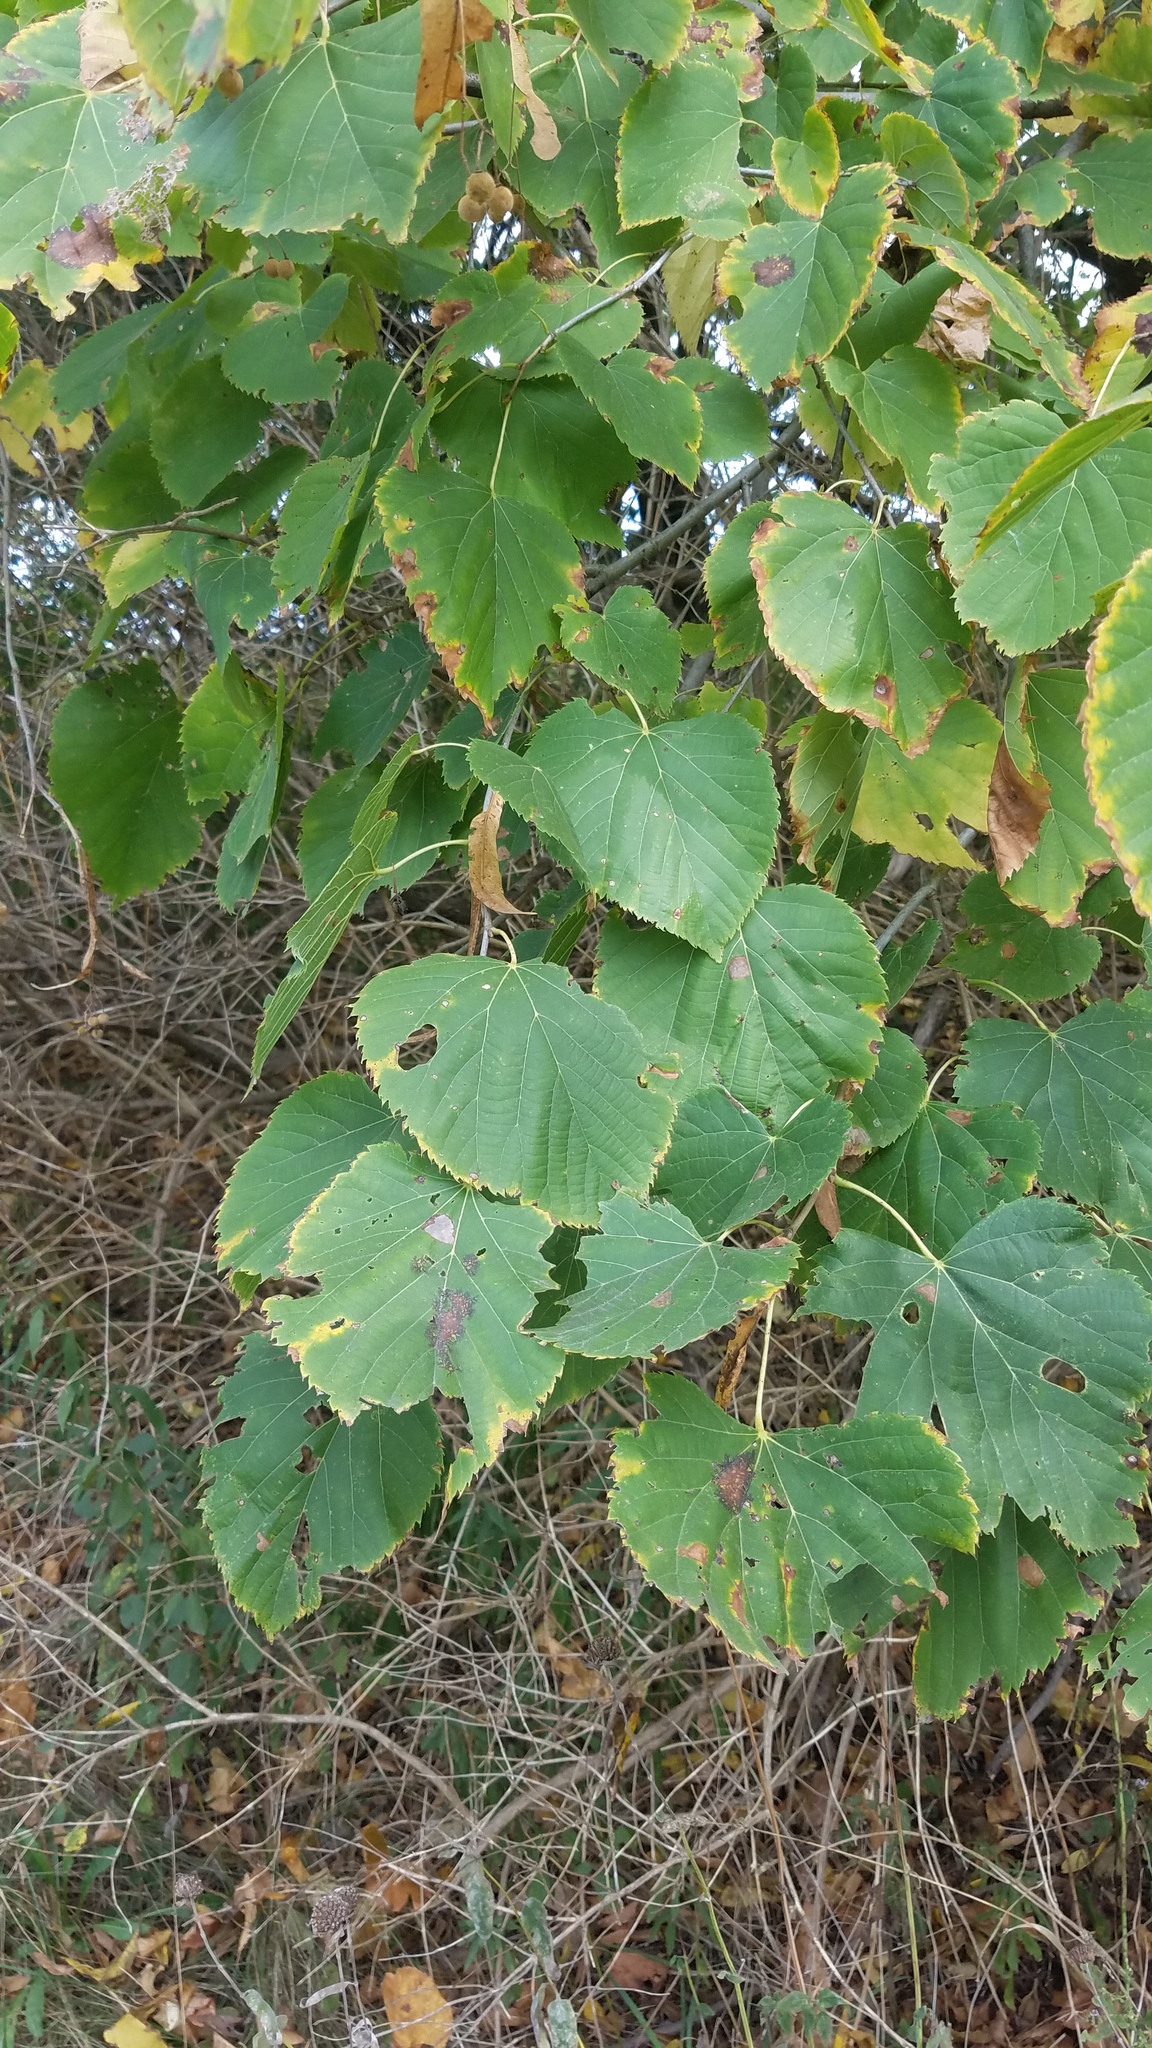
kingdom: Plantae
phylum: Tracheophyta
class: Magnoliopsida
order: Malvales
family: Malvaceae
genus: Tilia
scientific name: Tilia americana
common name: Basswood
